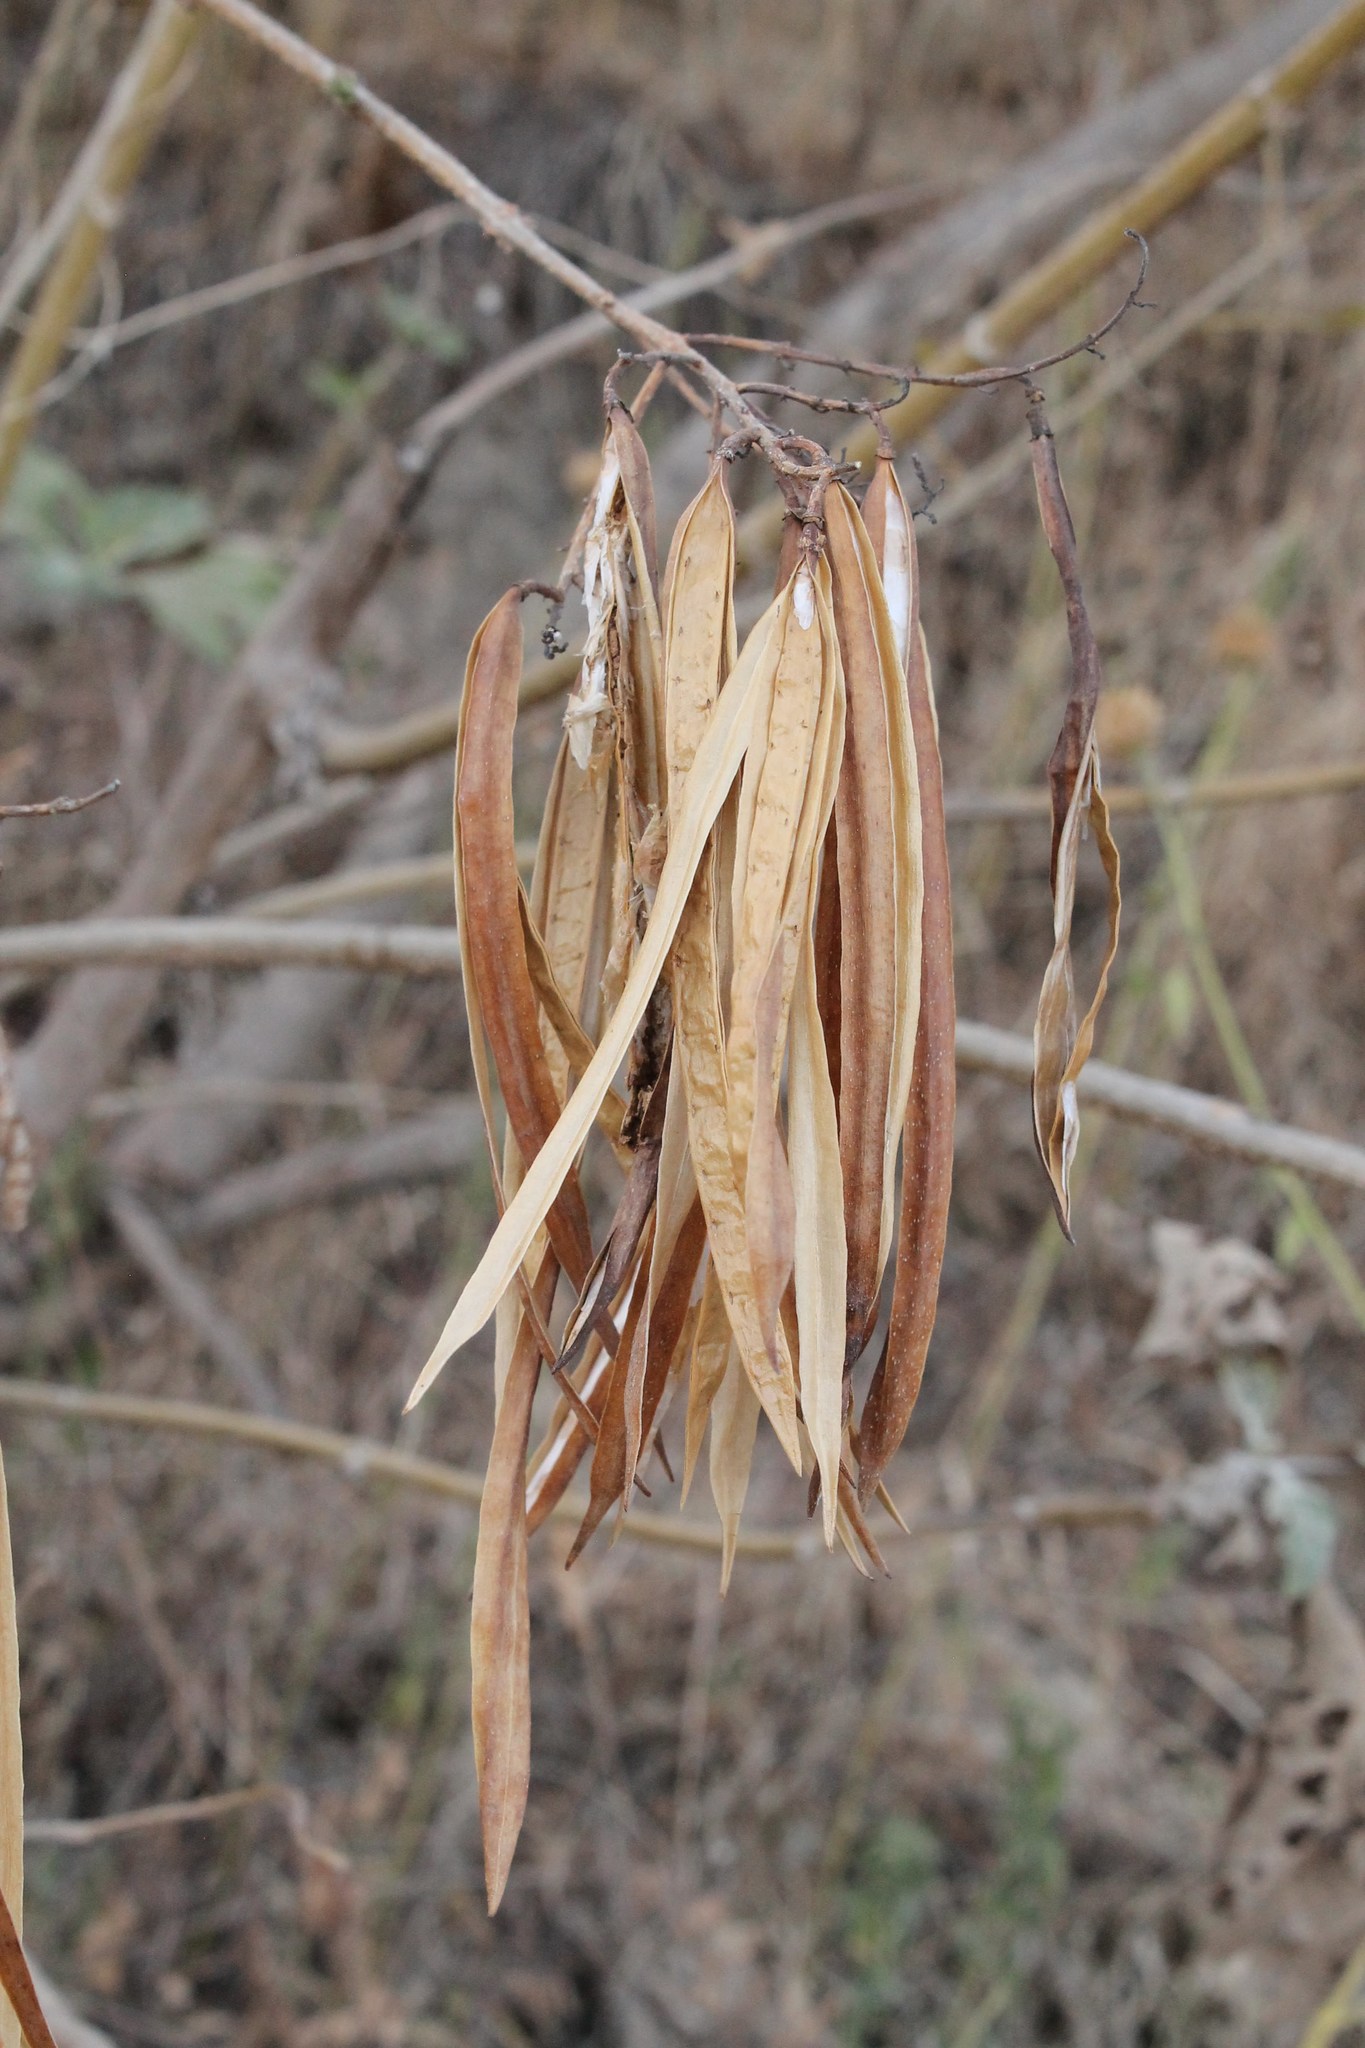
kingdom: Plantae
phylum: Tracheophyta
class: Magnoliopsida
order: Lamiales
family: Bignoniaceae
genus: Tecoma
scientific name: Tecoma stans
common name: Yellow trumpetbush
